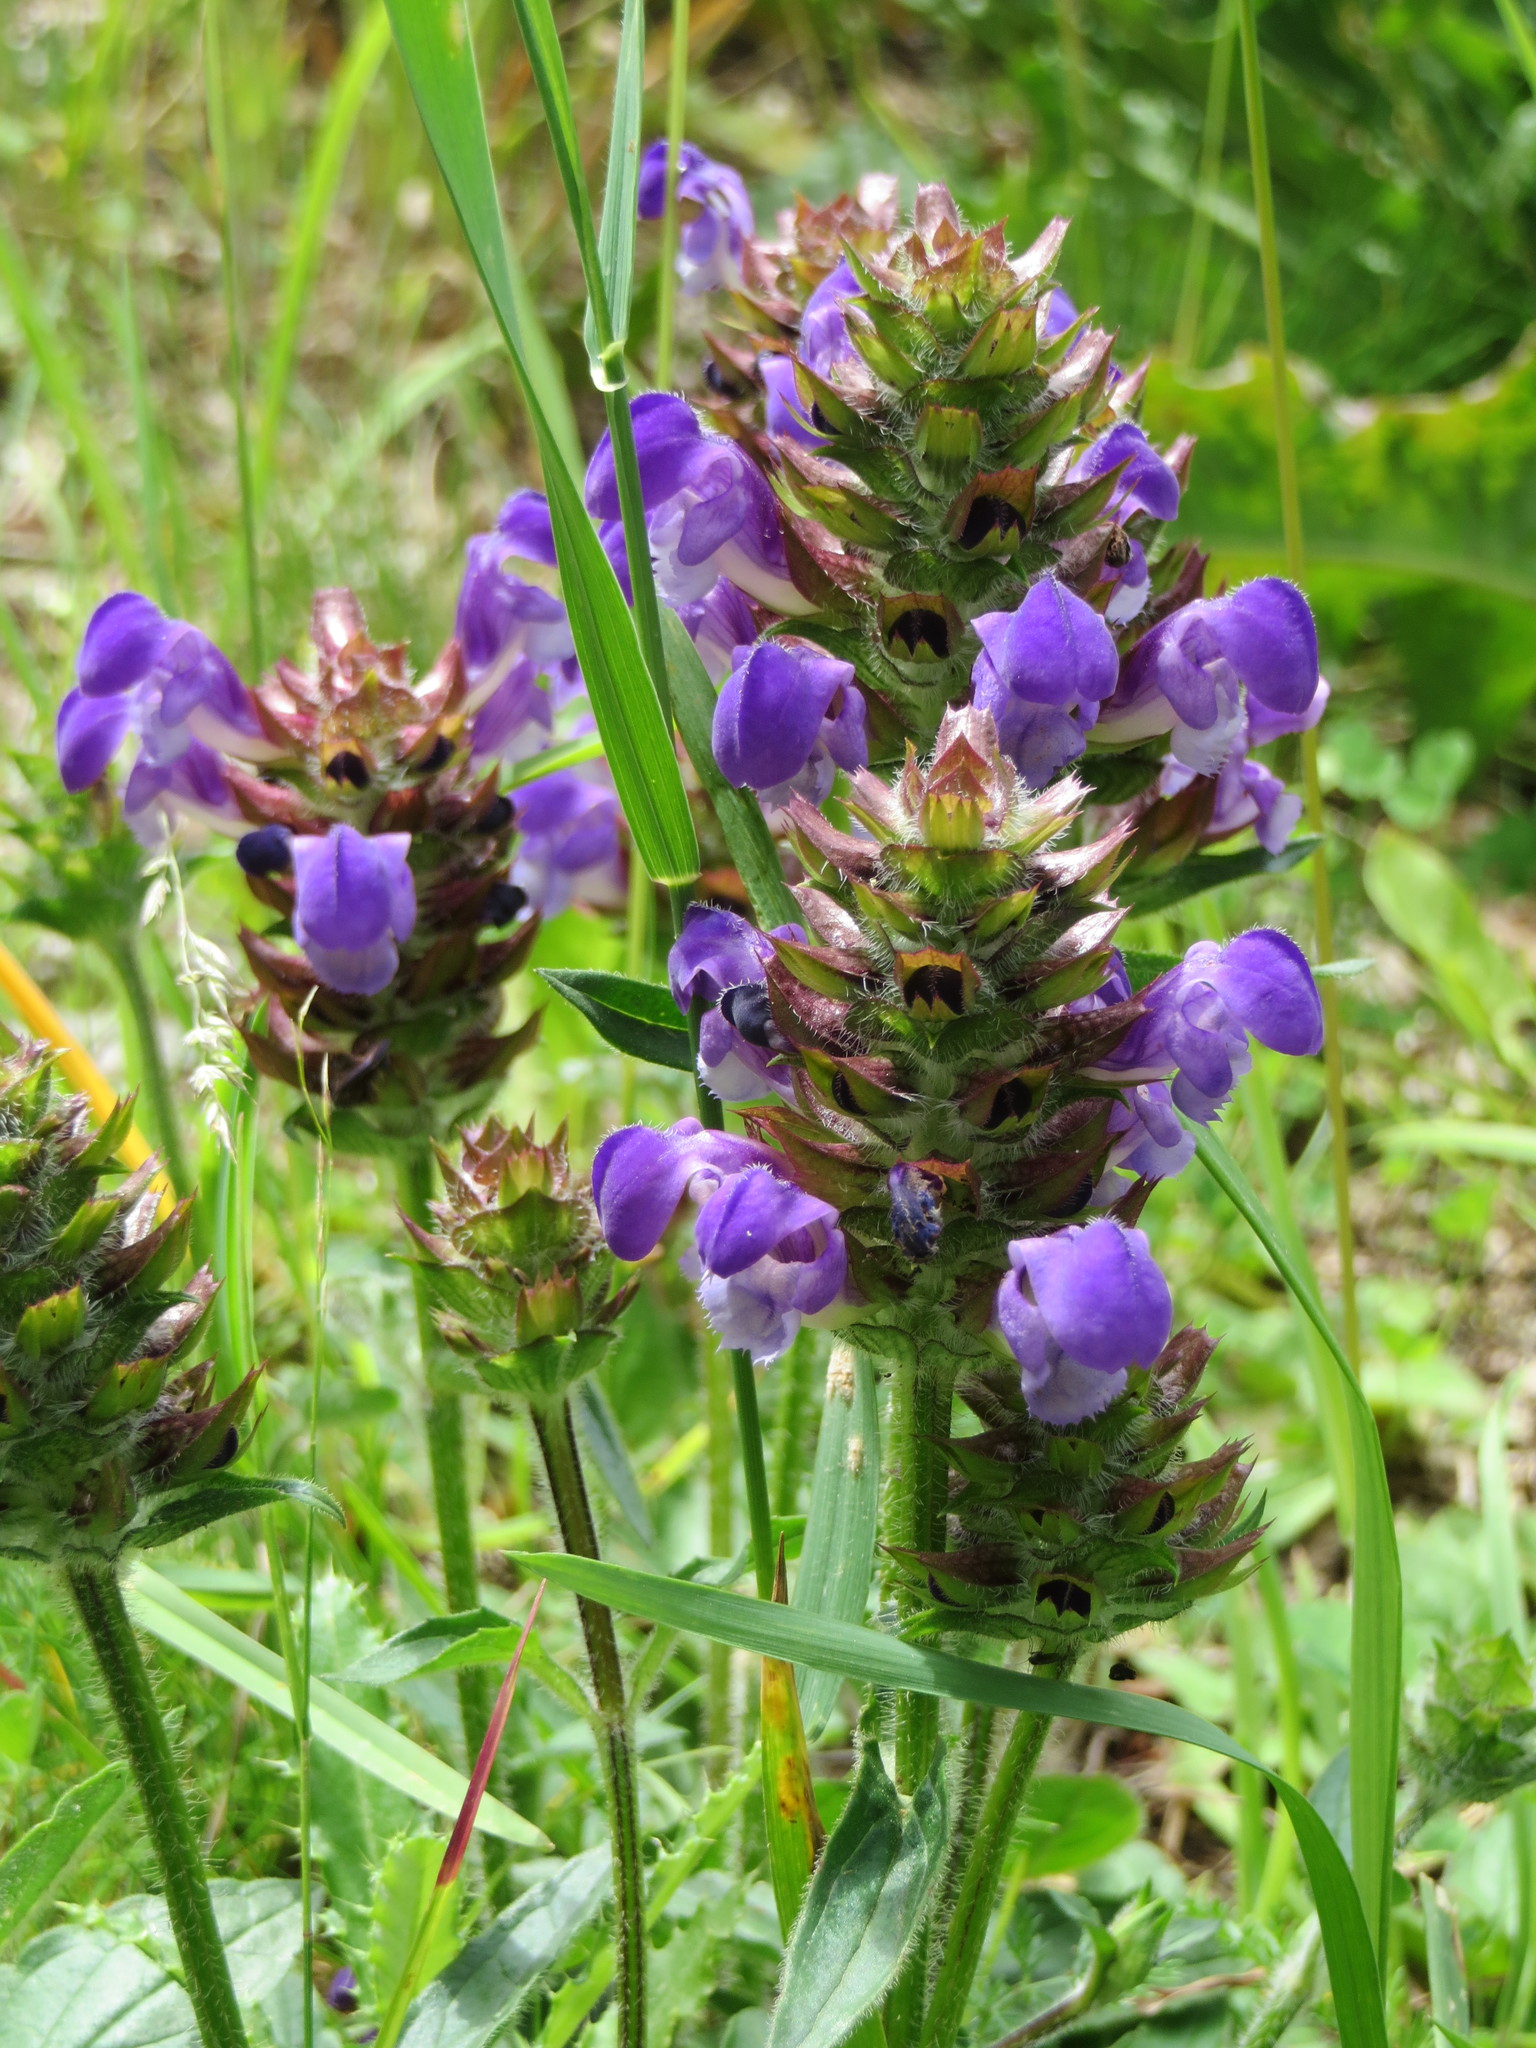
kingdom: Plantae
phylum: Tracheophyta
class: Magnoliopsida
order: Lamiales
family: Lamiaceae
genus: Prunella
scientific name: Prunella grandiflora
